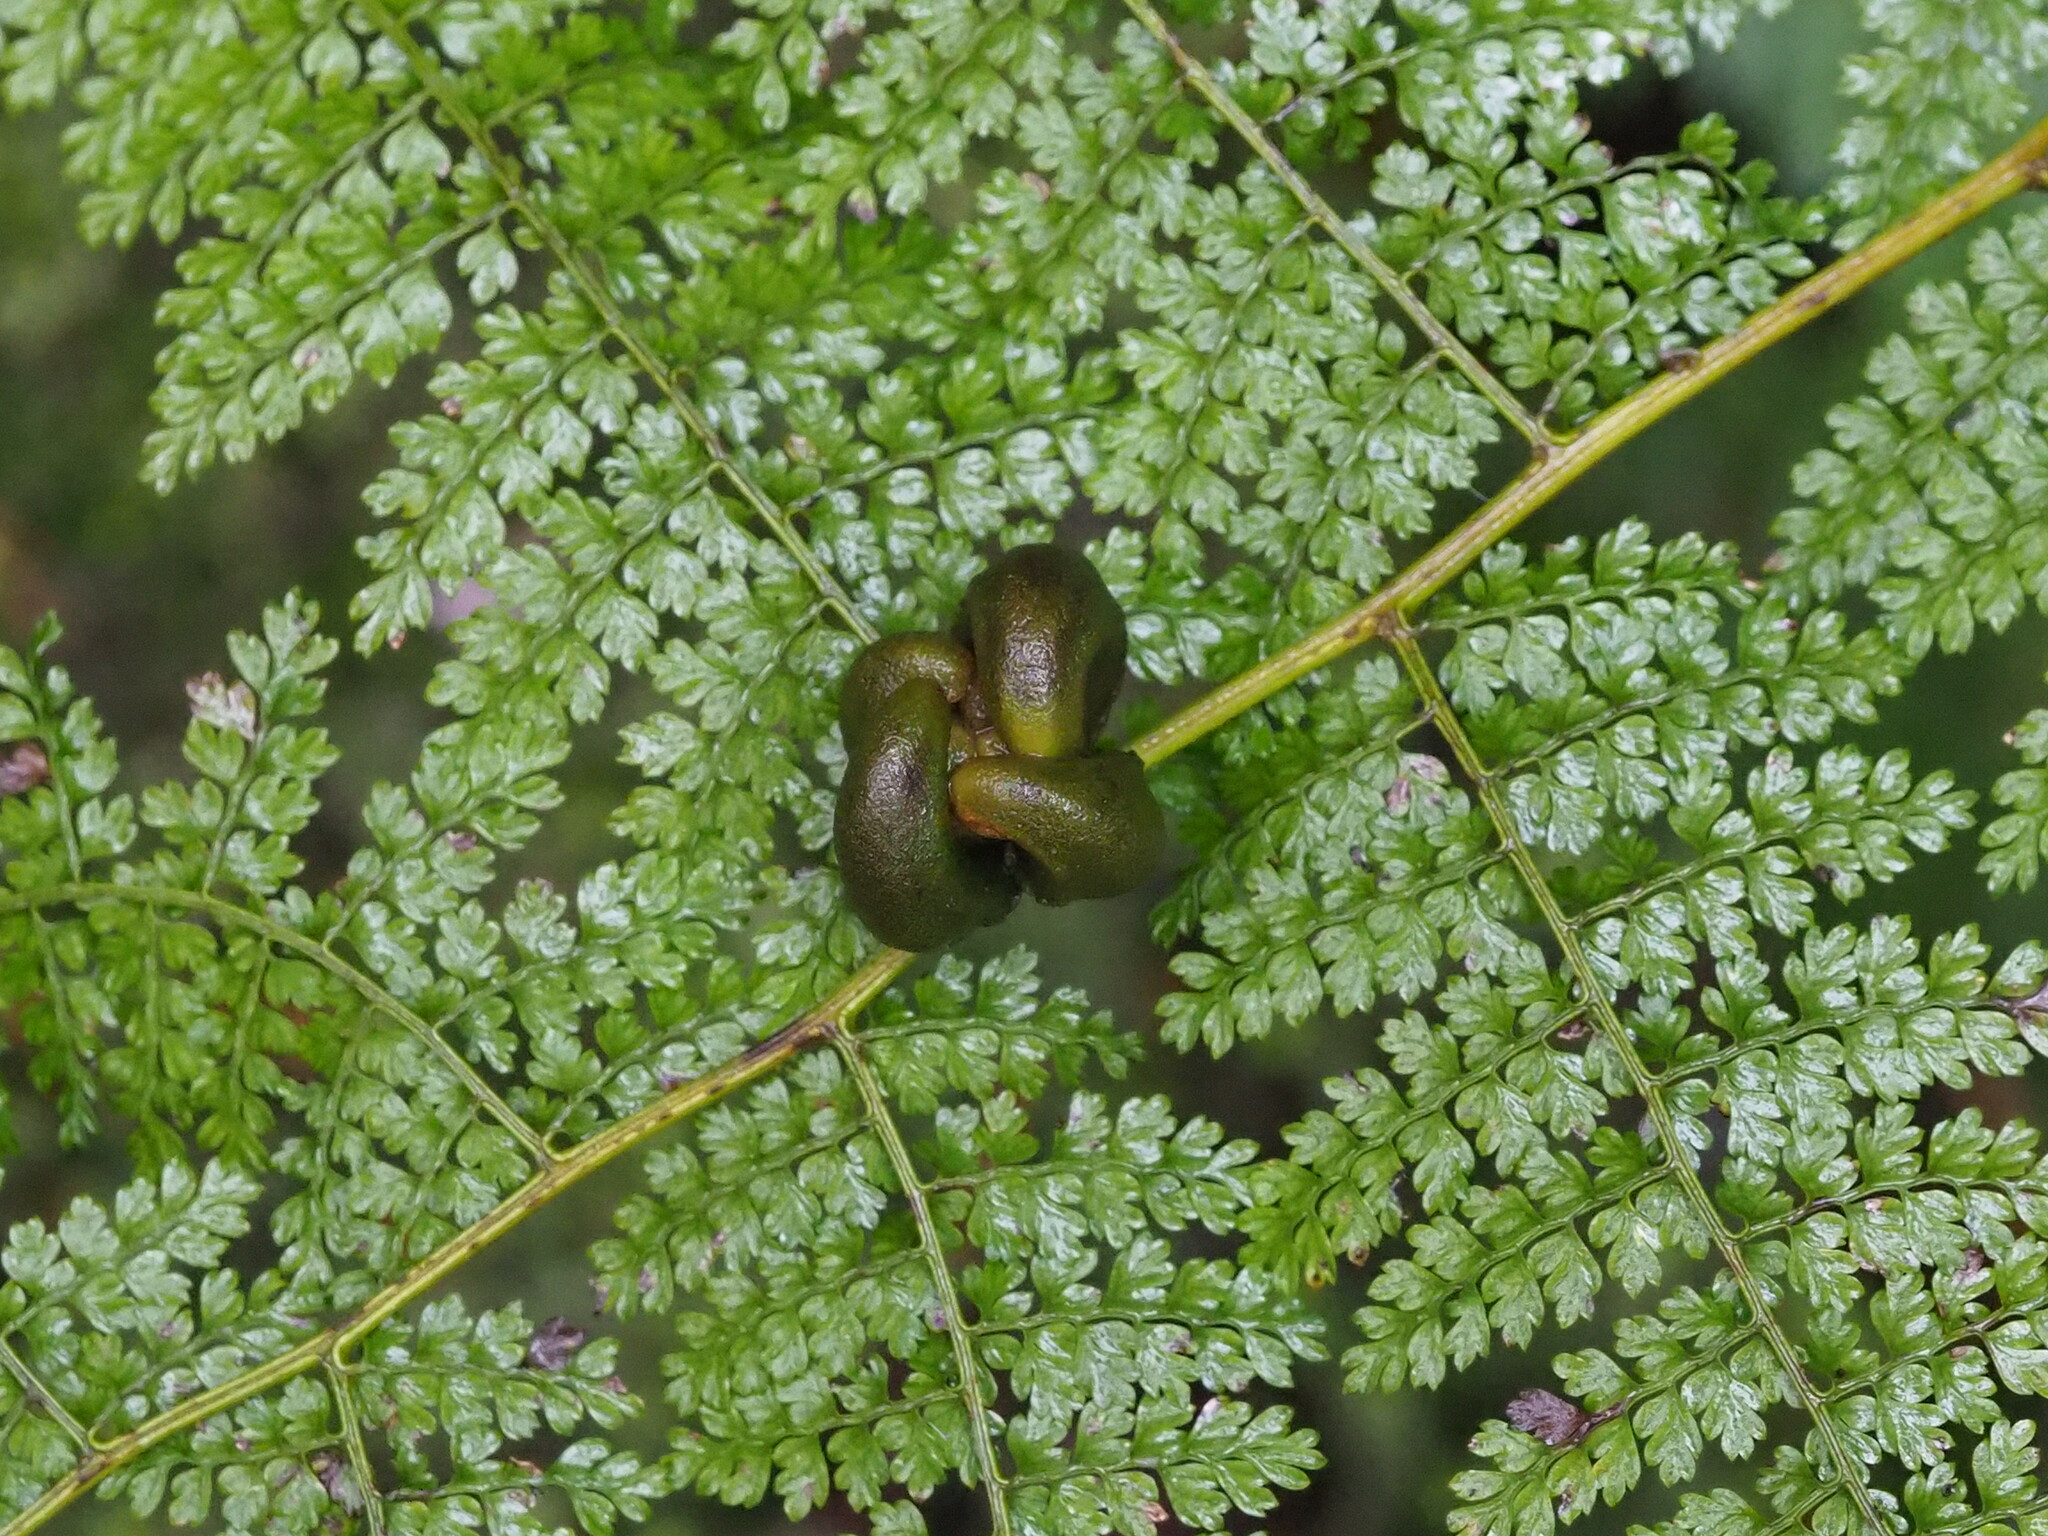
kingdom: Plantae
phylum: Tracheophyta
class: Polypodiopsida
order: Polypodiales
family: Dennstaedtiaceae
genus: Monachosorum
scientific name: Monachosorum henryi
